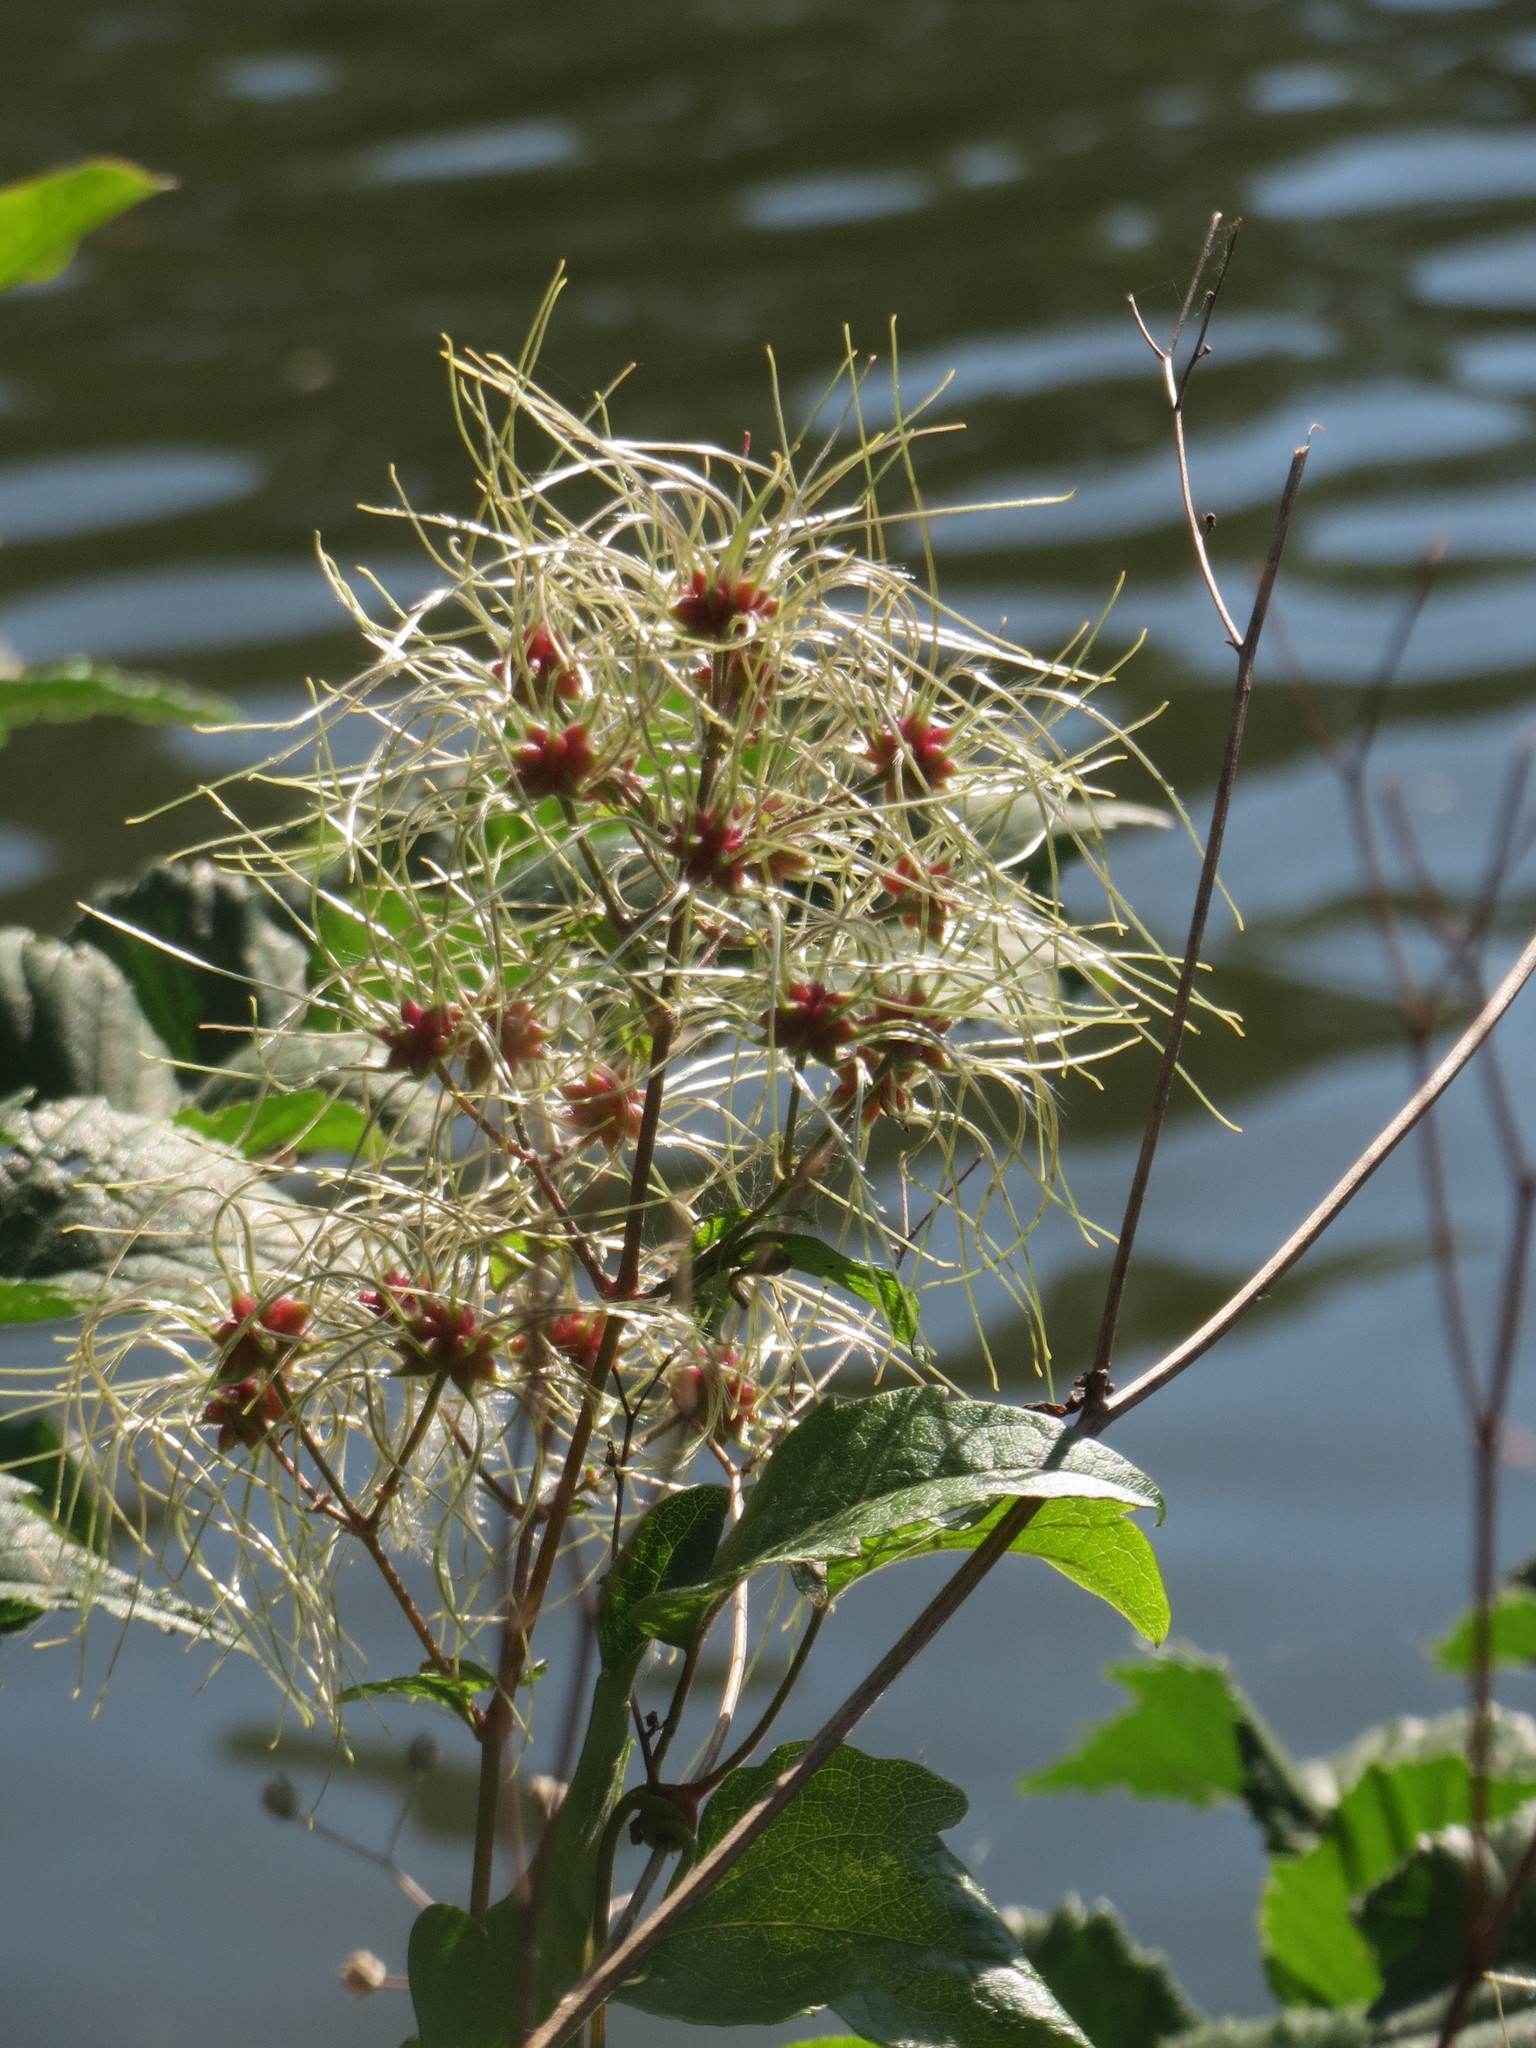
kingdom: Plantae
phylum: Tracheophyta
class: Magnoliopsida
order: Ranunculales
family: Ranunculaceae
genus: Clematis
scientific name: Clematis vitalba
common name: Evergreen clematis
